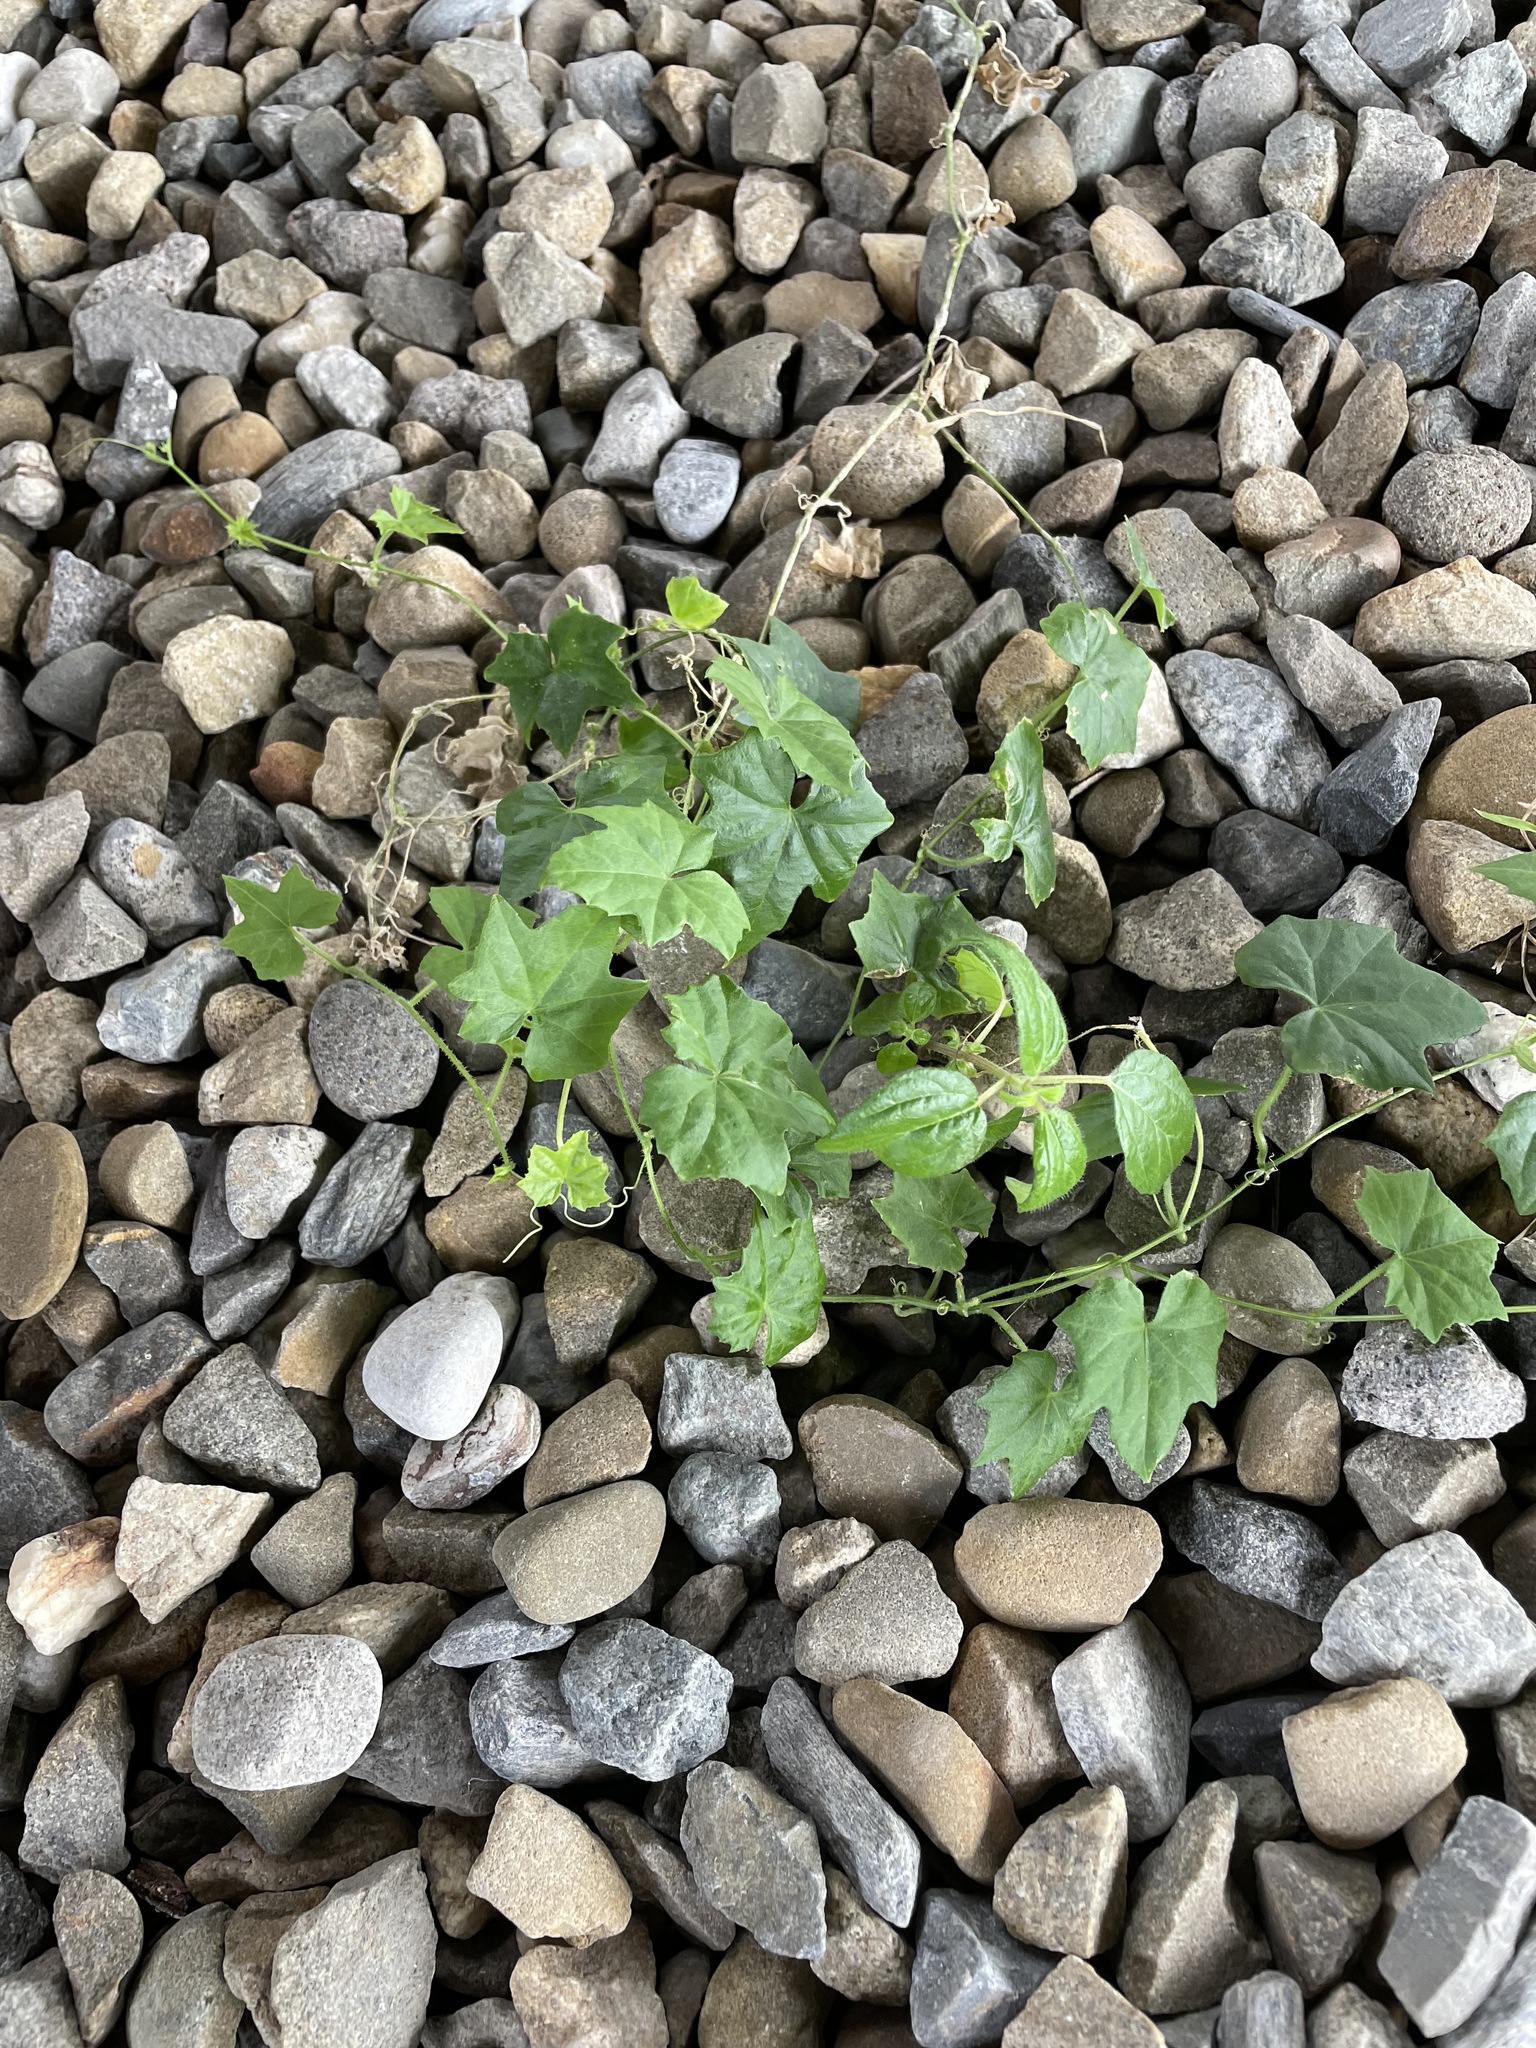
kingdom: Plantae
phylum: Tracheophyta
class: Magnoliopsida
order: Cucurbitales
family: Cucurbitaceae
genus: Melothria
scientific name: Melothria pendula
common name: Creeping-cucumber
